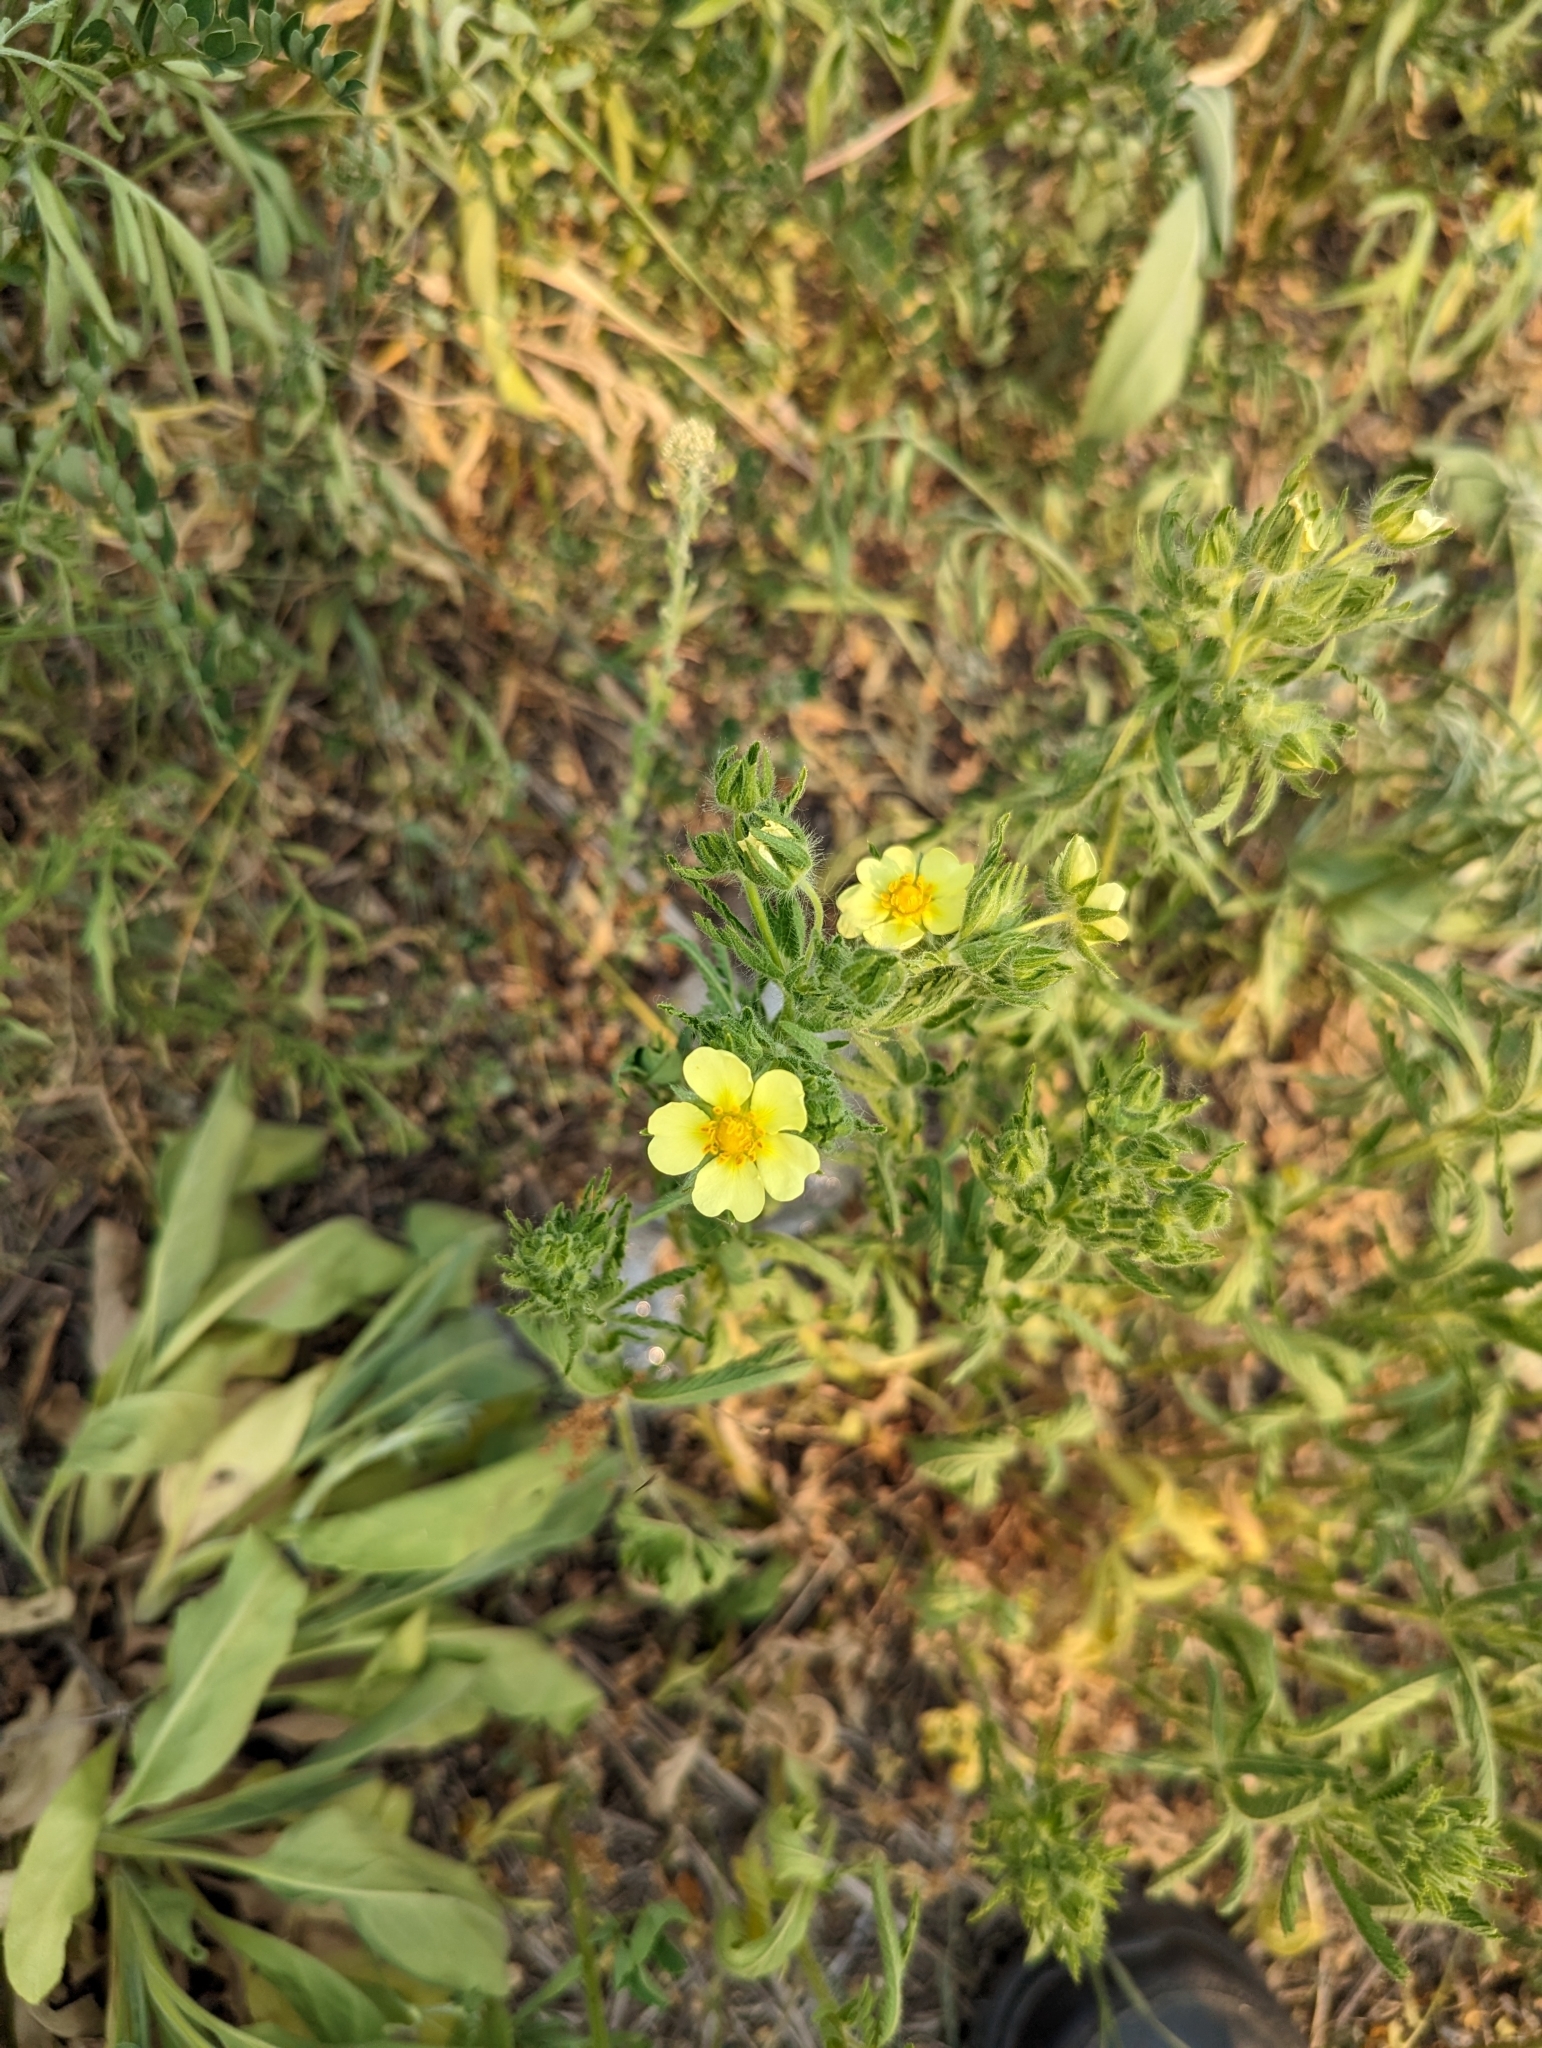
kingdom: Plantae
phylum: Tracheophyta
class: Magnoliopsida
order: Rosales
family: Rosaceae
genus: Potentilla
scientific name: Potentilla recta
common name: Sulphur cinquefoil
